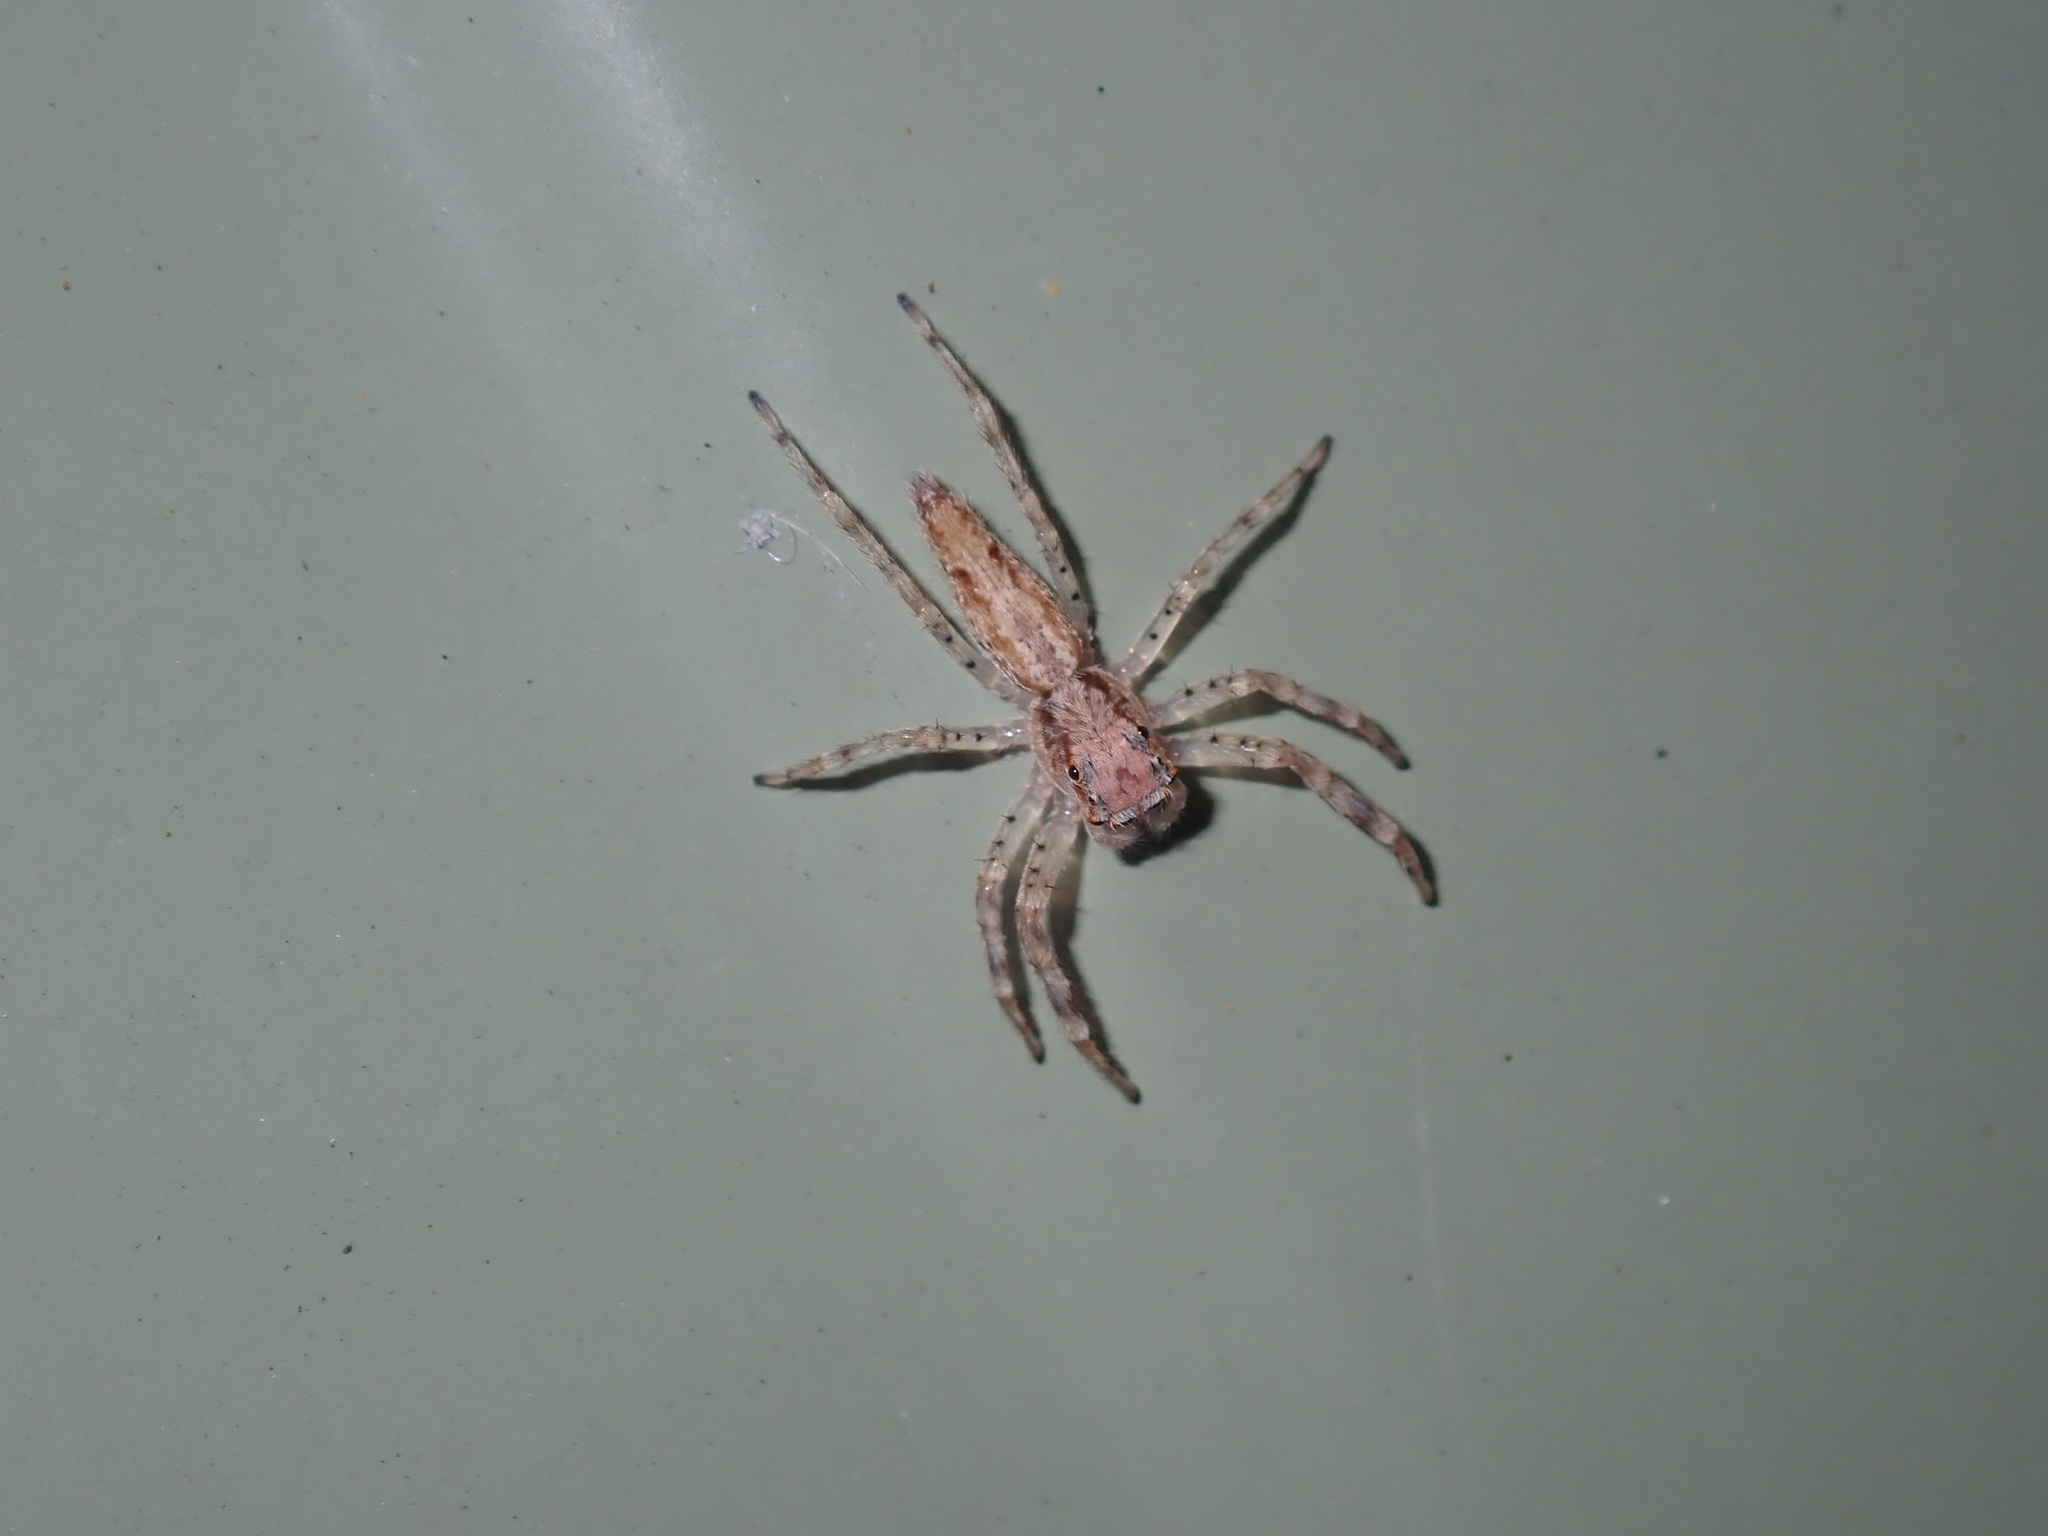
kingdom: Animalia
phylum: Arthropoda
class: Arachnida
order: Araneae
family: Salticidae
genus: Helpis
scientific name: Helpis minitabunda
